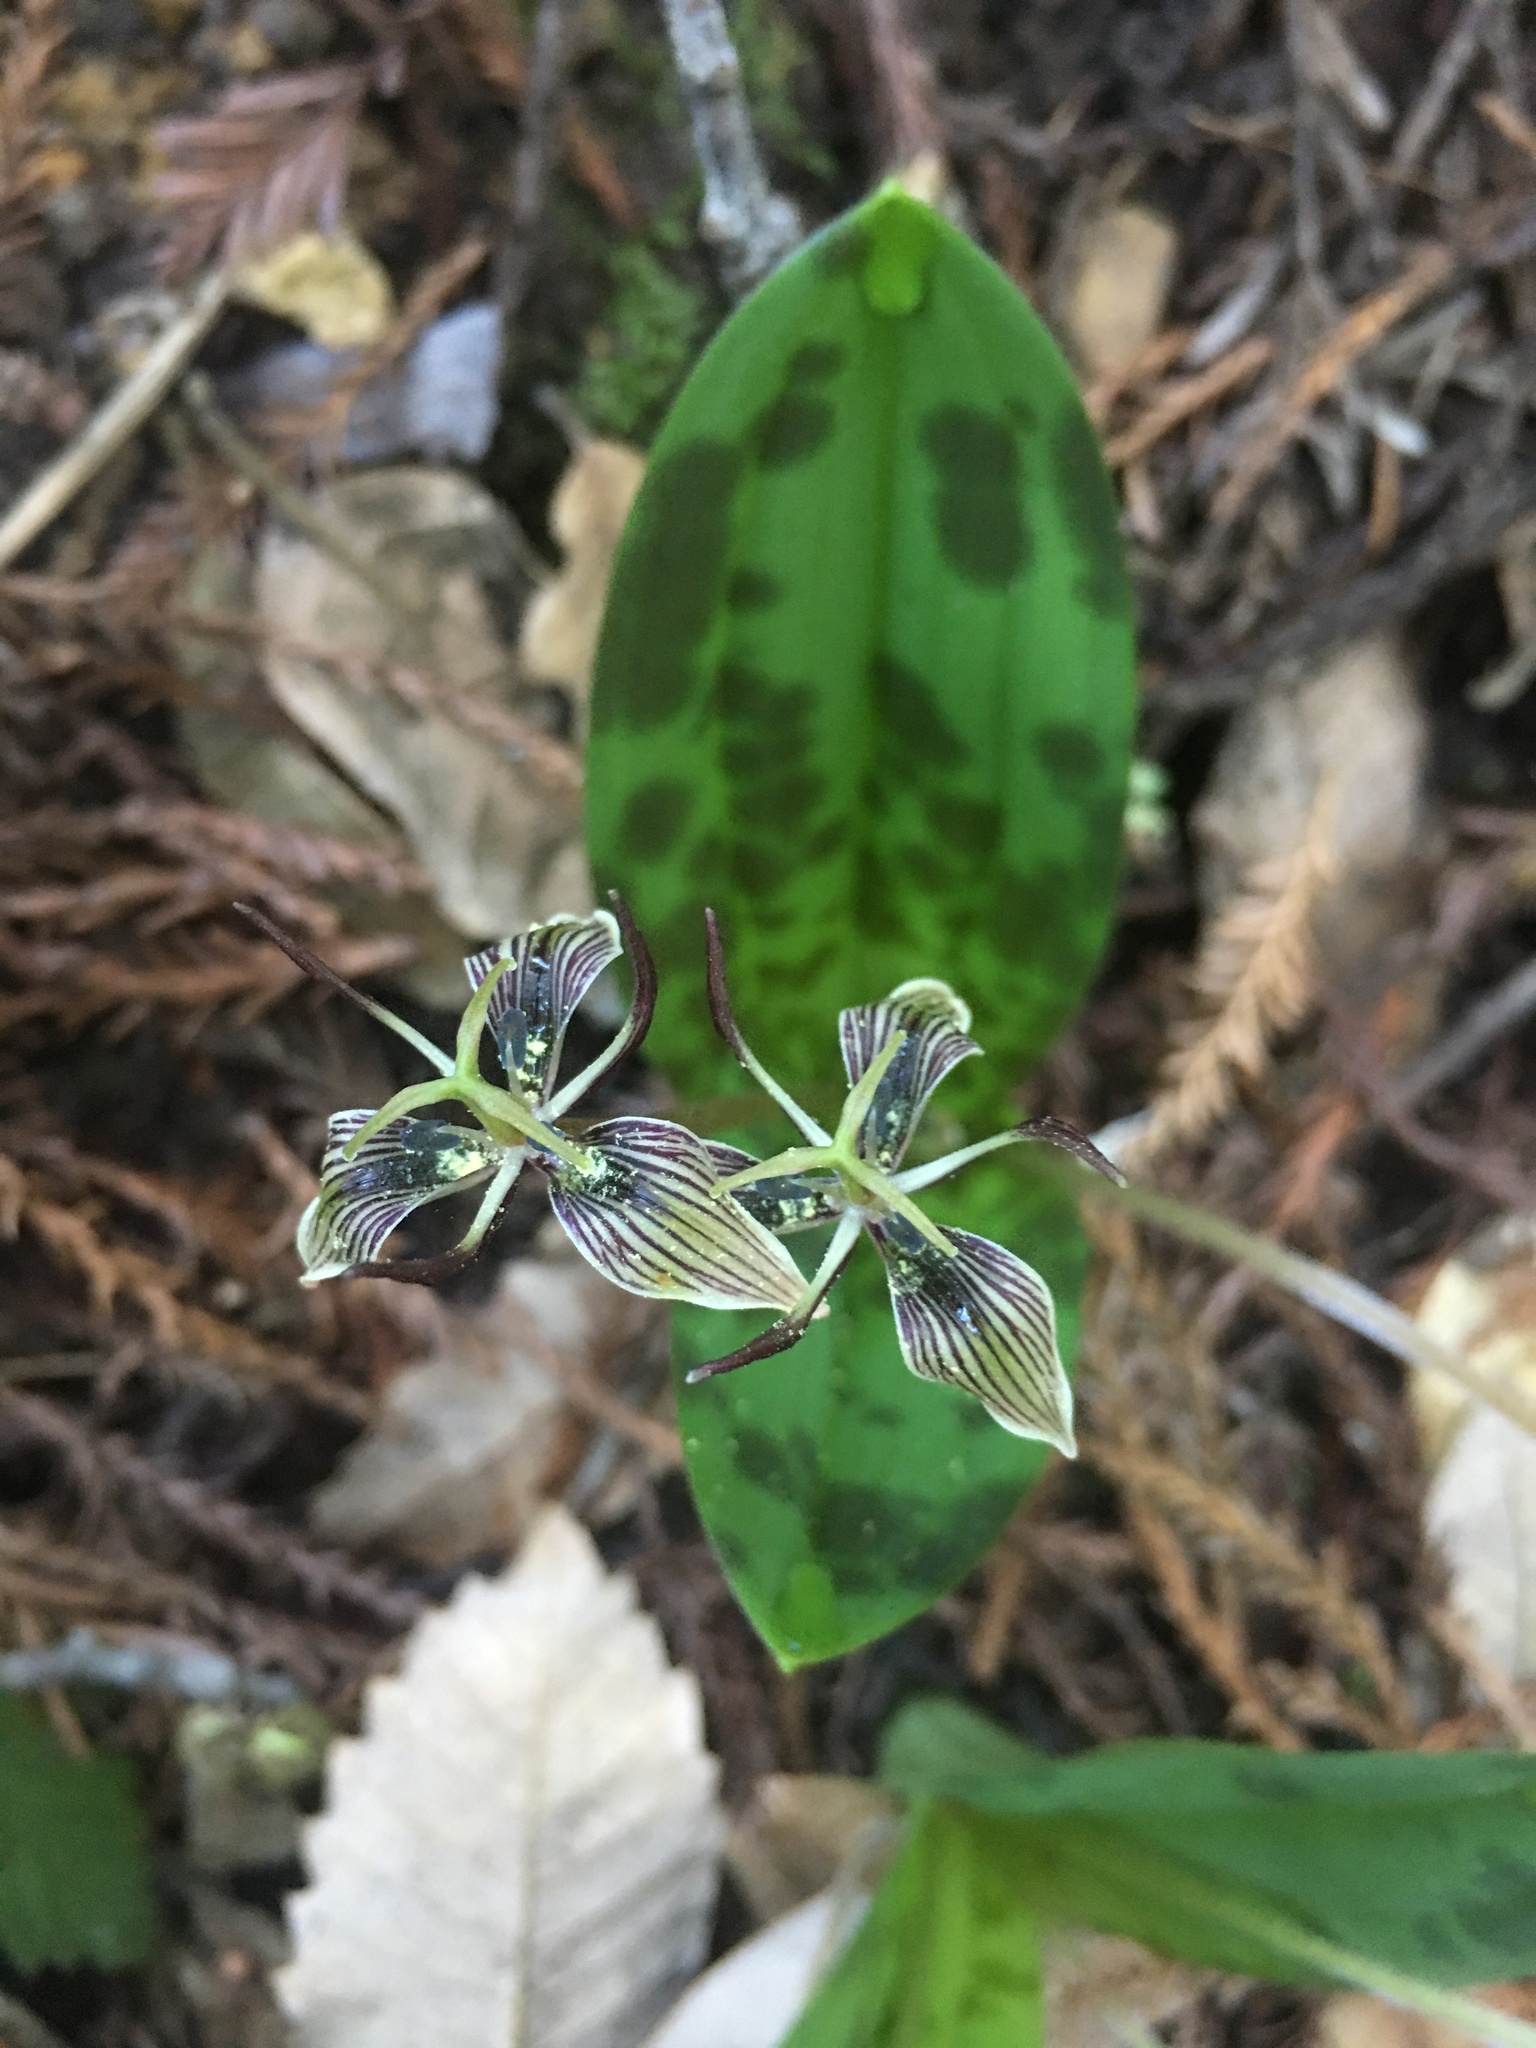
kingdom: Plantae
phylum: Tracheophyta
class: Liliopsida
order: Liliales
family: Liliaceae
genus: Scoliopus
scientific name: Scoliopus bigelovii
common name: Foetid adder's-tongue
